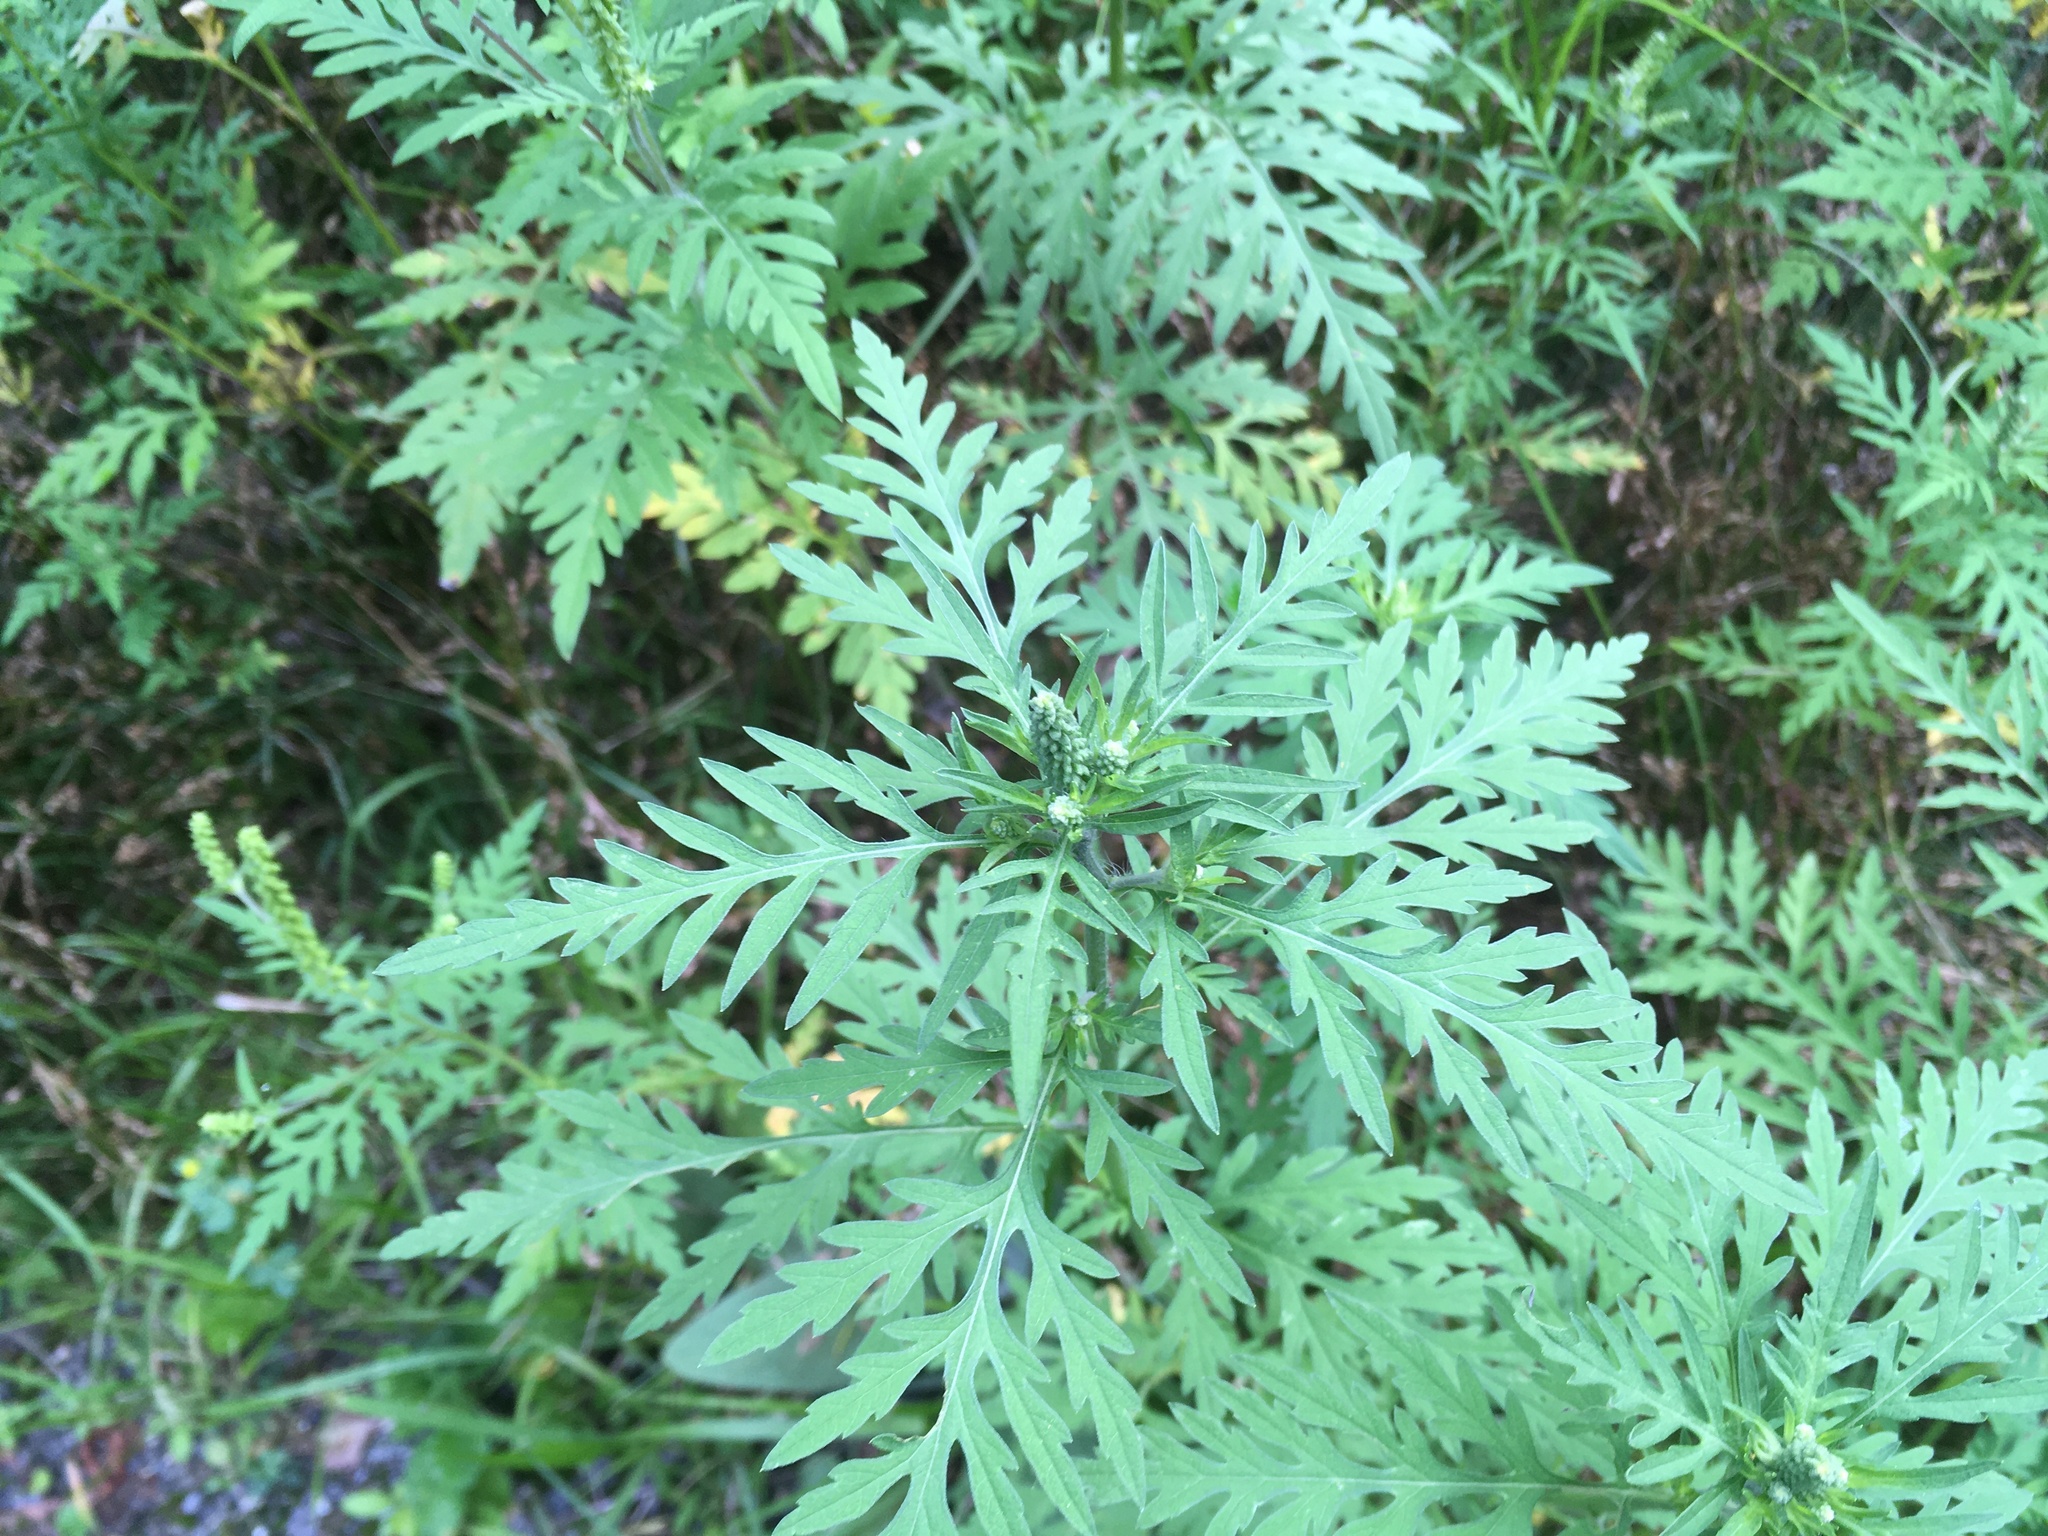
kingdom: Plantae
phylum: Tracheophyta
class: Magnoliopsida
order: Asterales
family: Asteraceae
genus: Ambrosia
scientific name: Ambrosia artemisiifolia
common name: Annual ragweed
